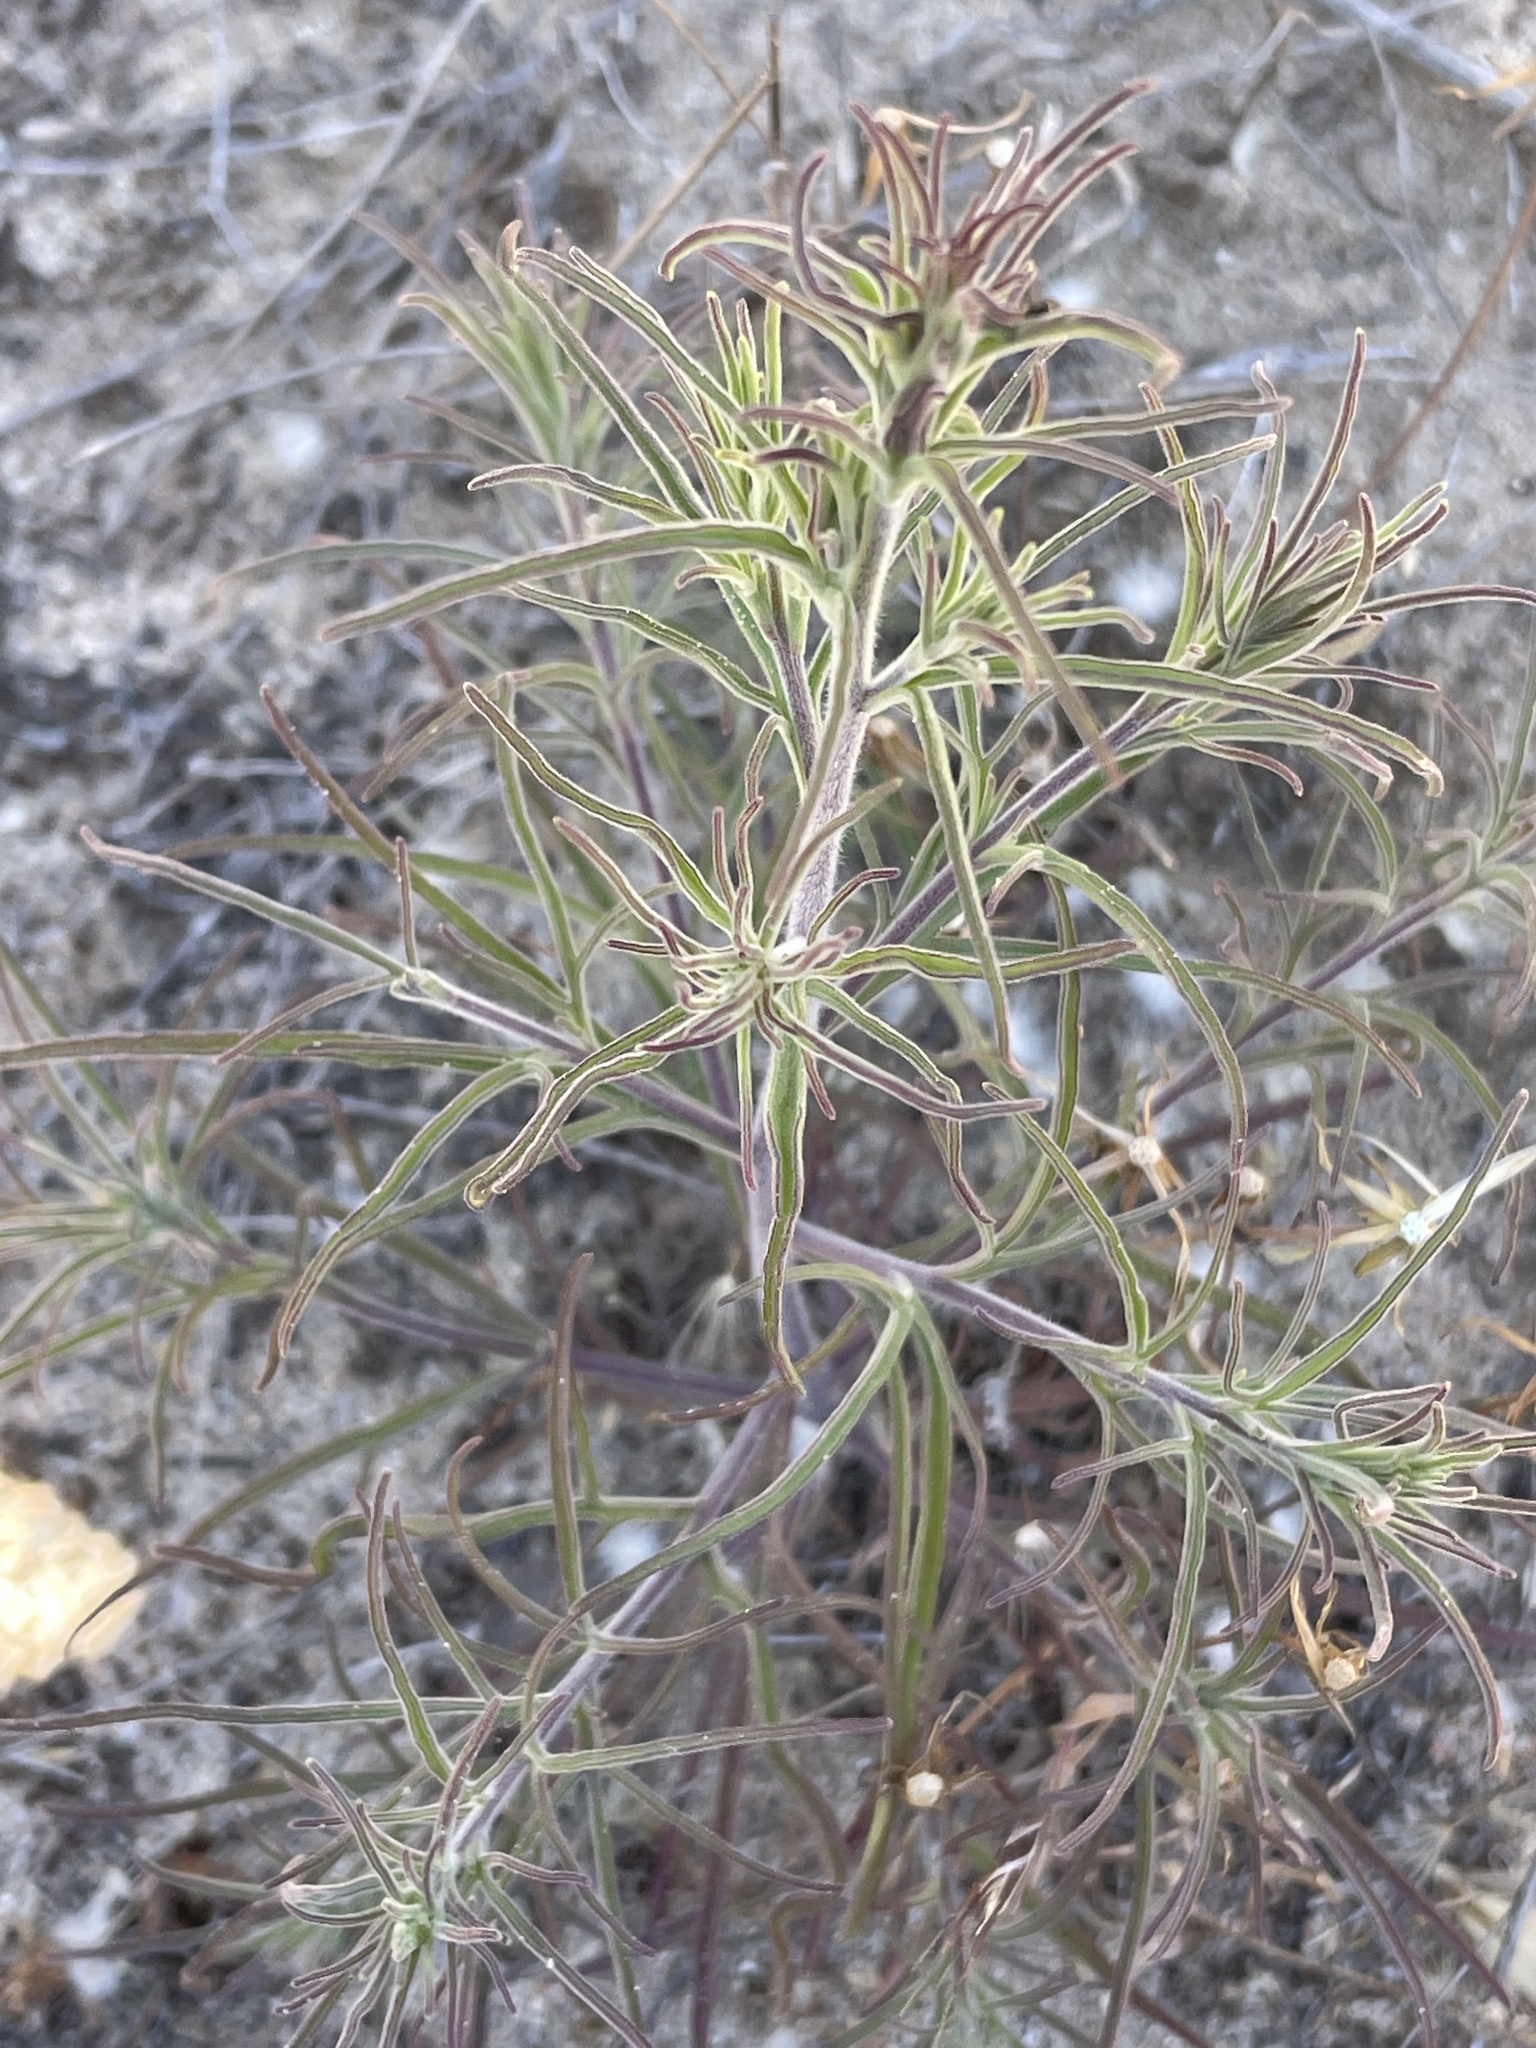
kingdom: Plantae
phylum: Tracheophyta
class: Magnoliopsida
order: Lamiales
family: Orobanchaceae
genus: Cordylanthus
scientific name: Cordylanthus rigidus
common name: Stiff-branch bird's-beak
